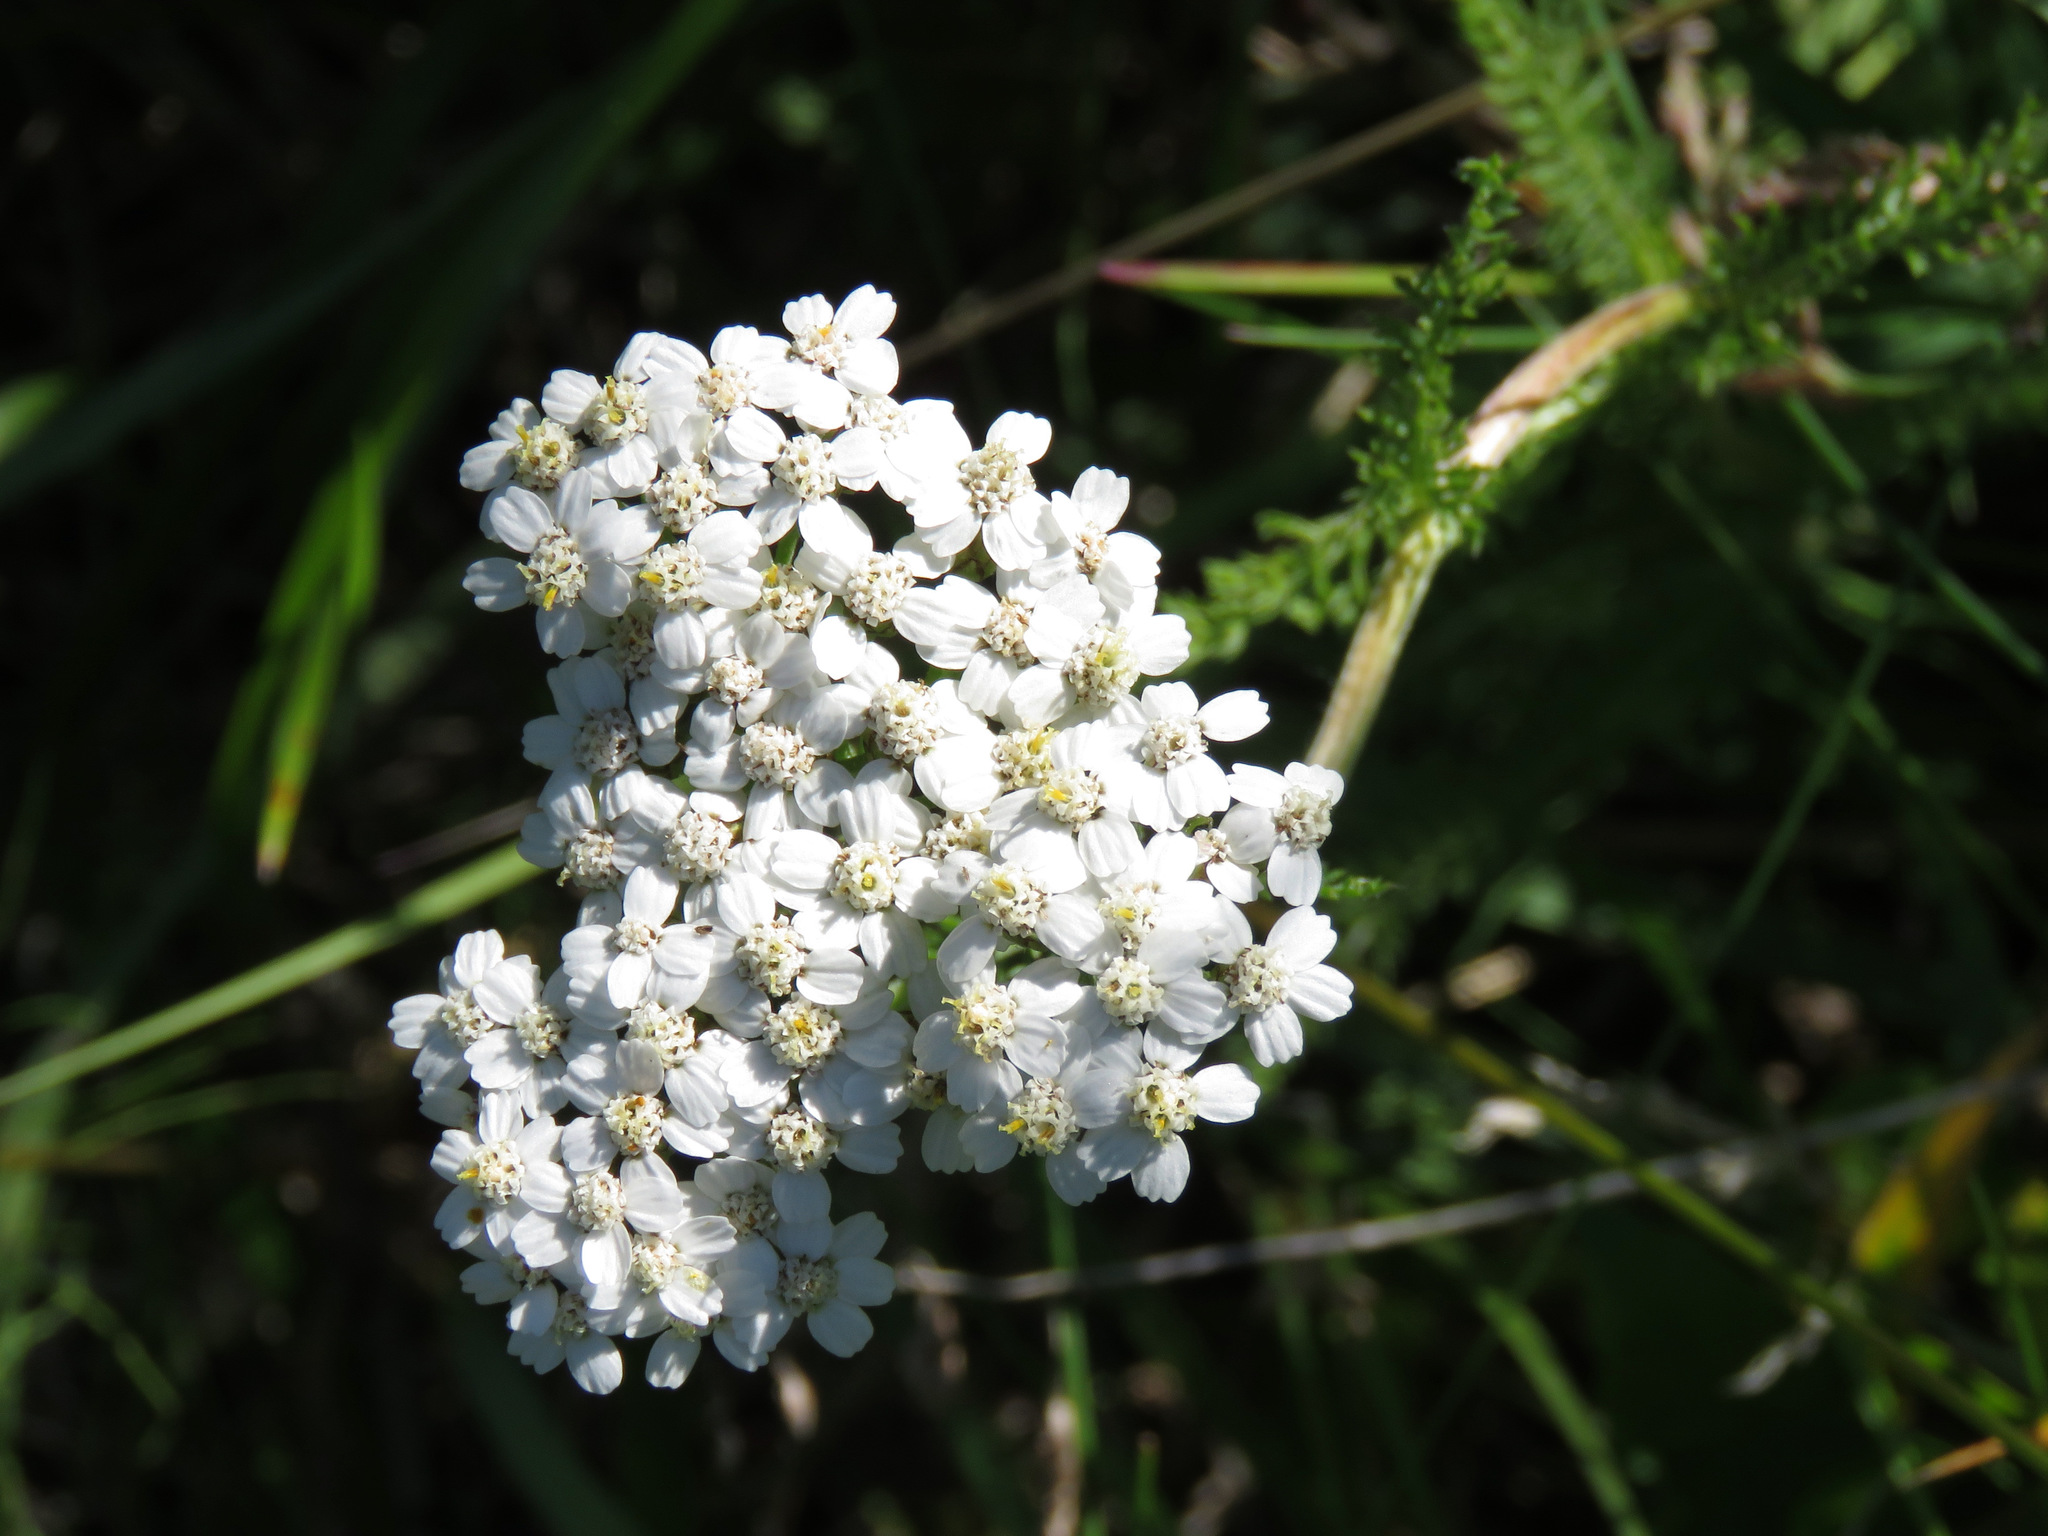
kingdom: Plantae
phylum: Tracheophyta
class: Magnoliopsida
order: Asterales
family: Asteraceae
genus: Achillea
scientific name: Achillea millefolium
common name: Yarrow
